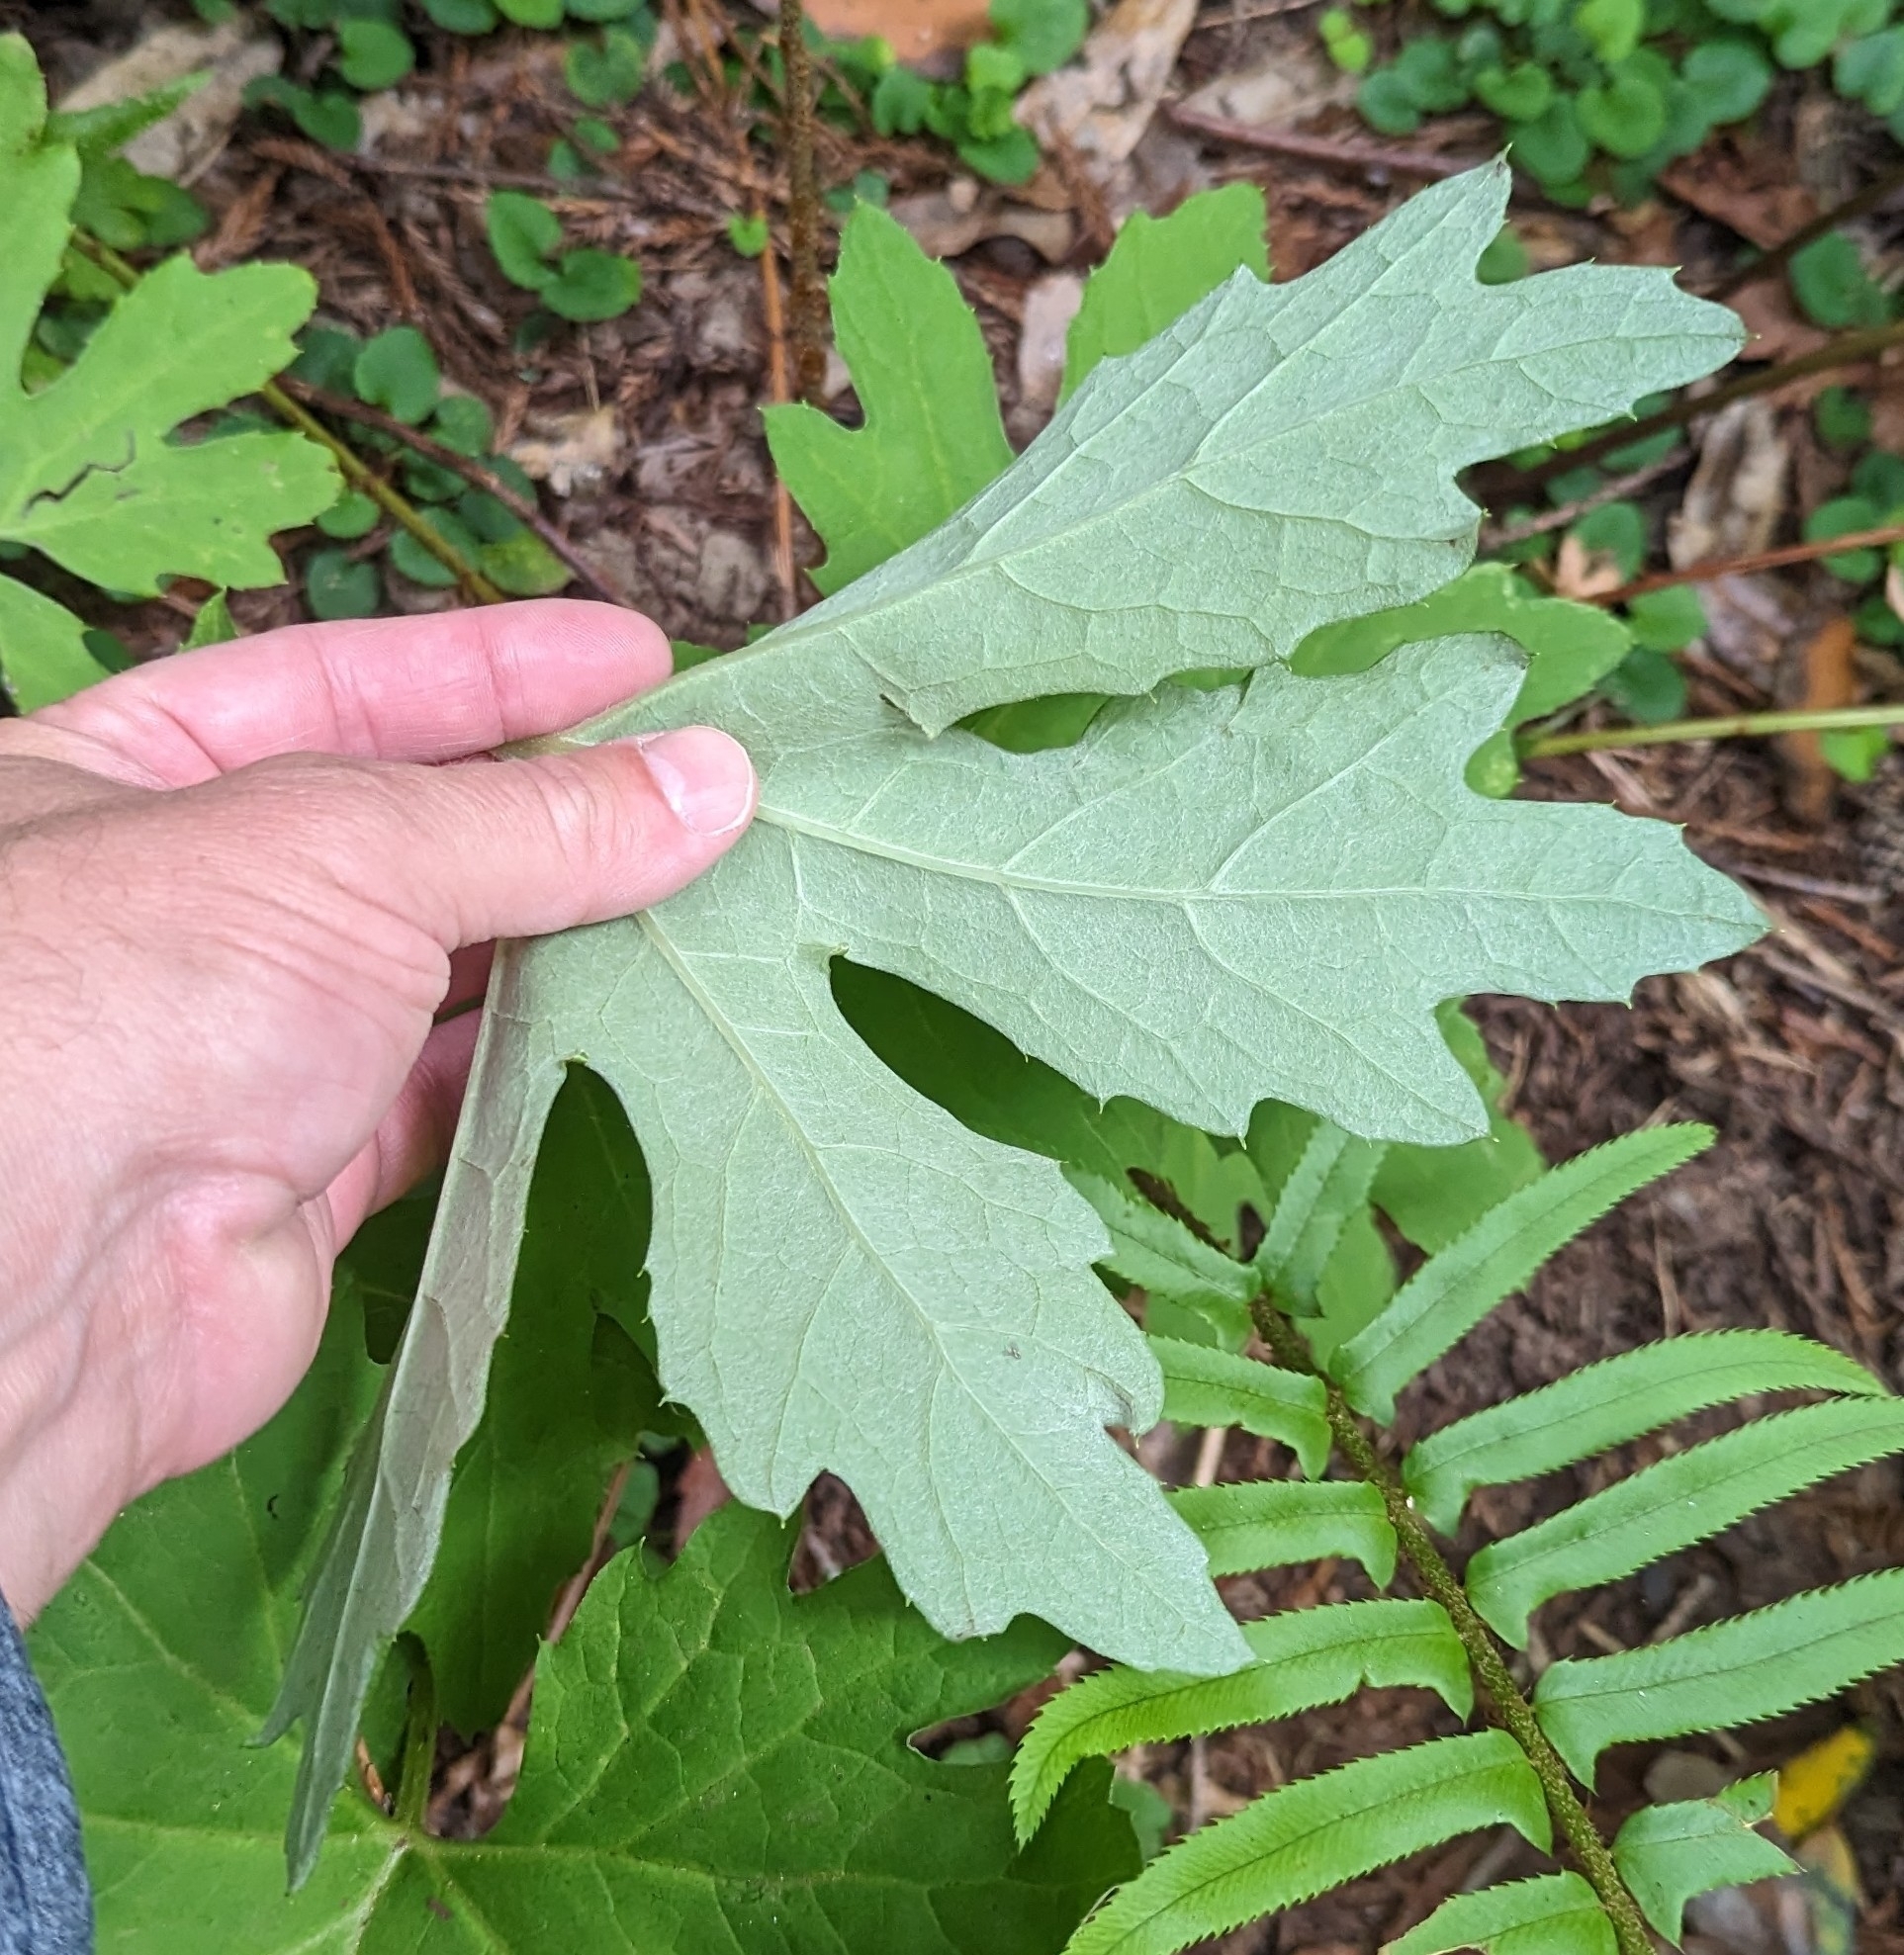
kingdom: Plantae
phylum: Tracheophyta
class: Magnoliopsida
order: Asterales
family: Asteraceae
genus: Petasites
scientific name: Petasites frigidus
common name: Arctic butterbur
